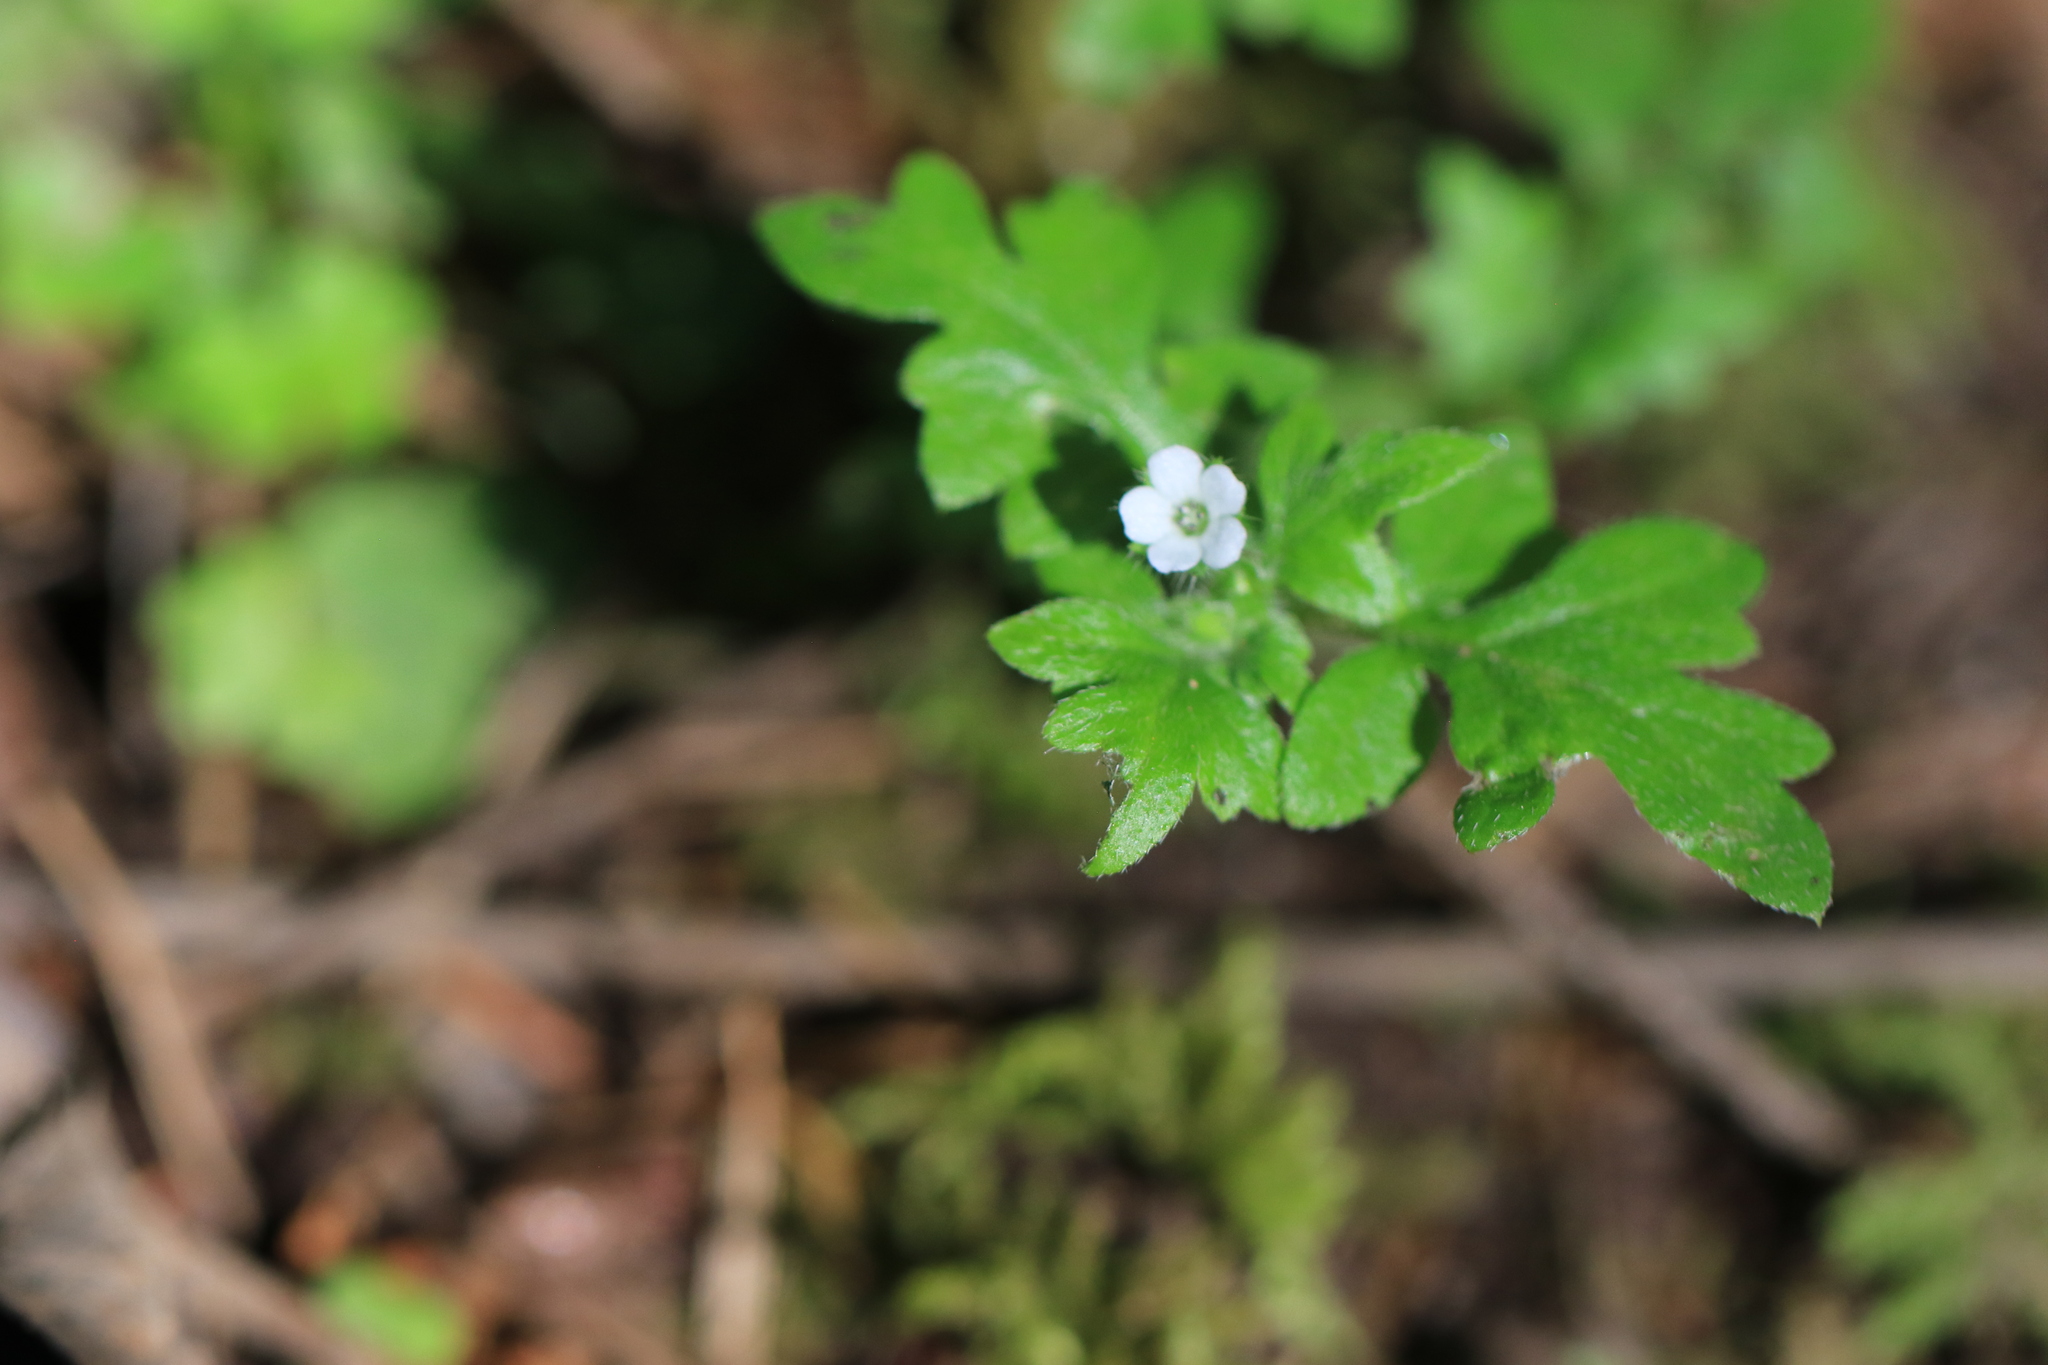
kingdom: Plantae
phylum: Tracheophyta
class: Magnoliopsida
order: Boraginales
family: Hydrophyllaceae
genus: Nemophila
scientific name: Nemophila parviflora
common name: Small-flowered baby-blue-eyes
